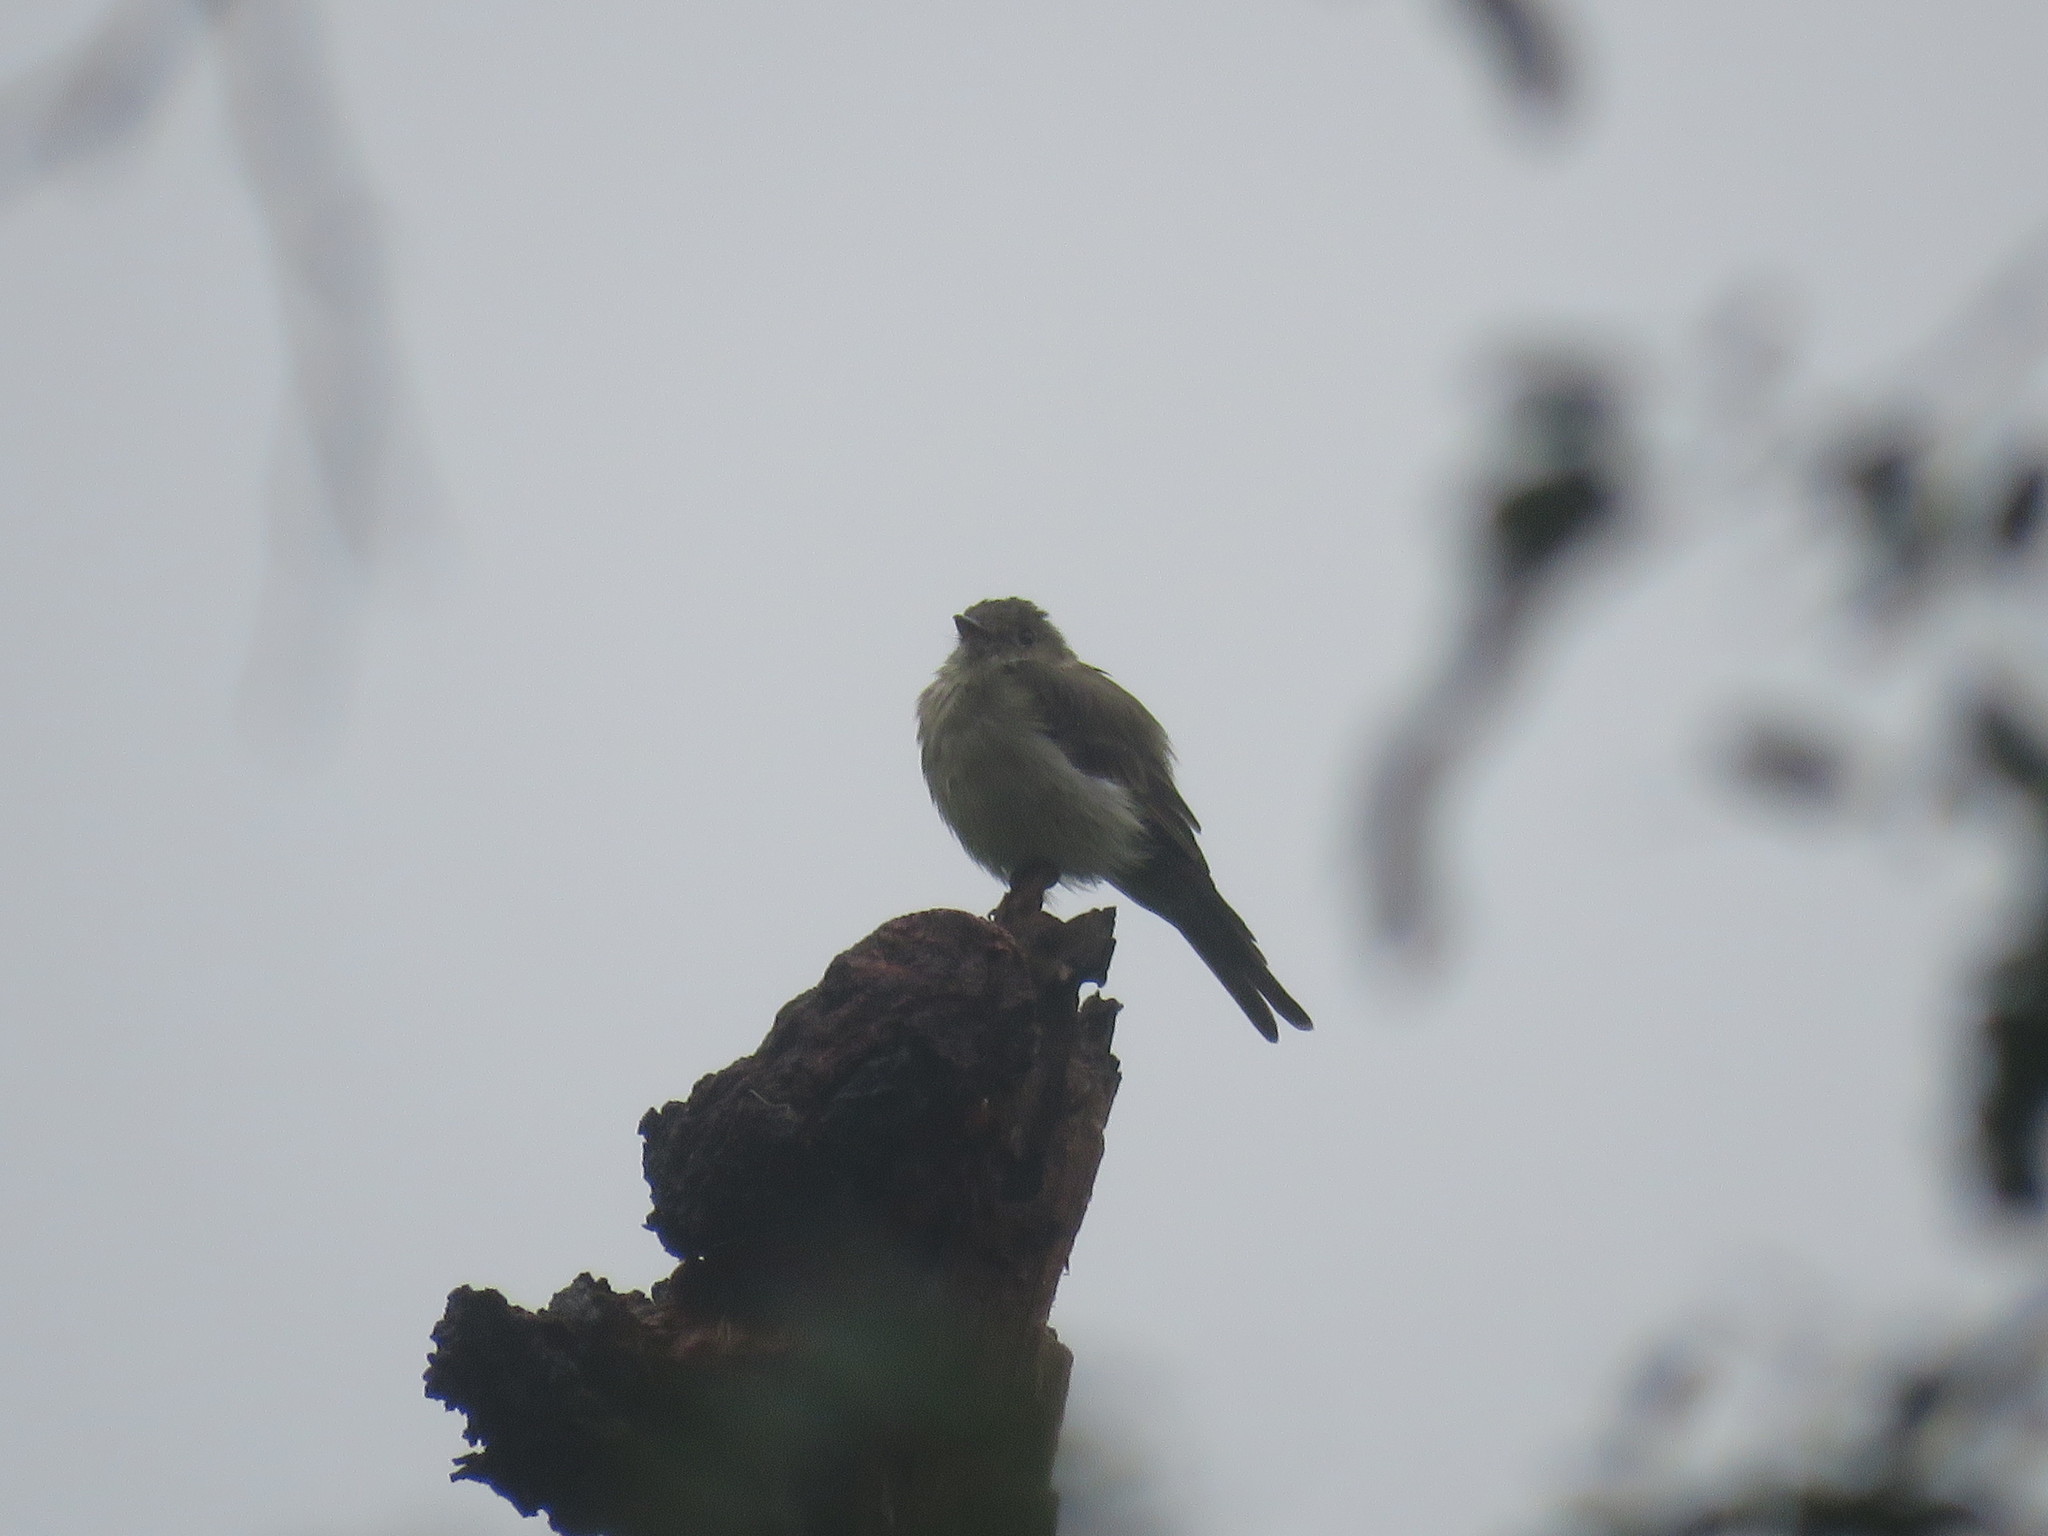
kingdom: Animalia
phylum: Chordata
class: Aves
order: Passeriformes
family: Tyrannidae
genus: Contopus
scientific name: Contopus fumigatus
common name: Smoke-colored pewee
